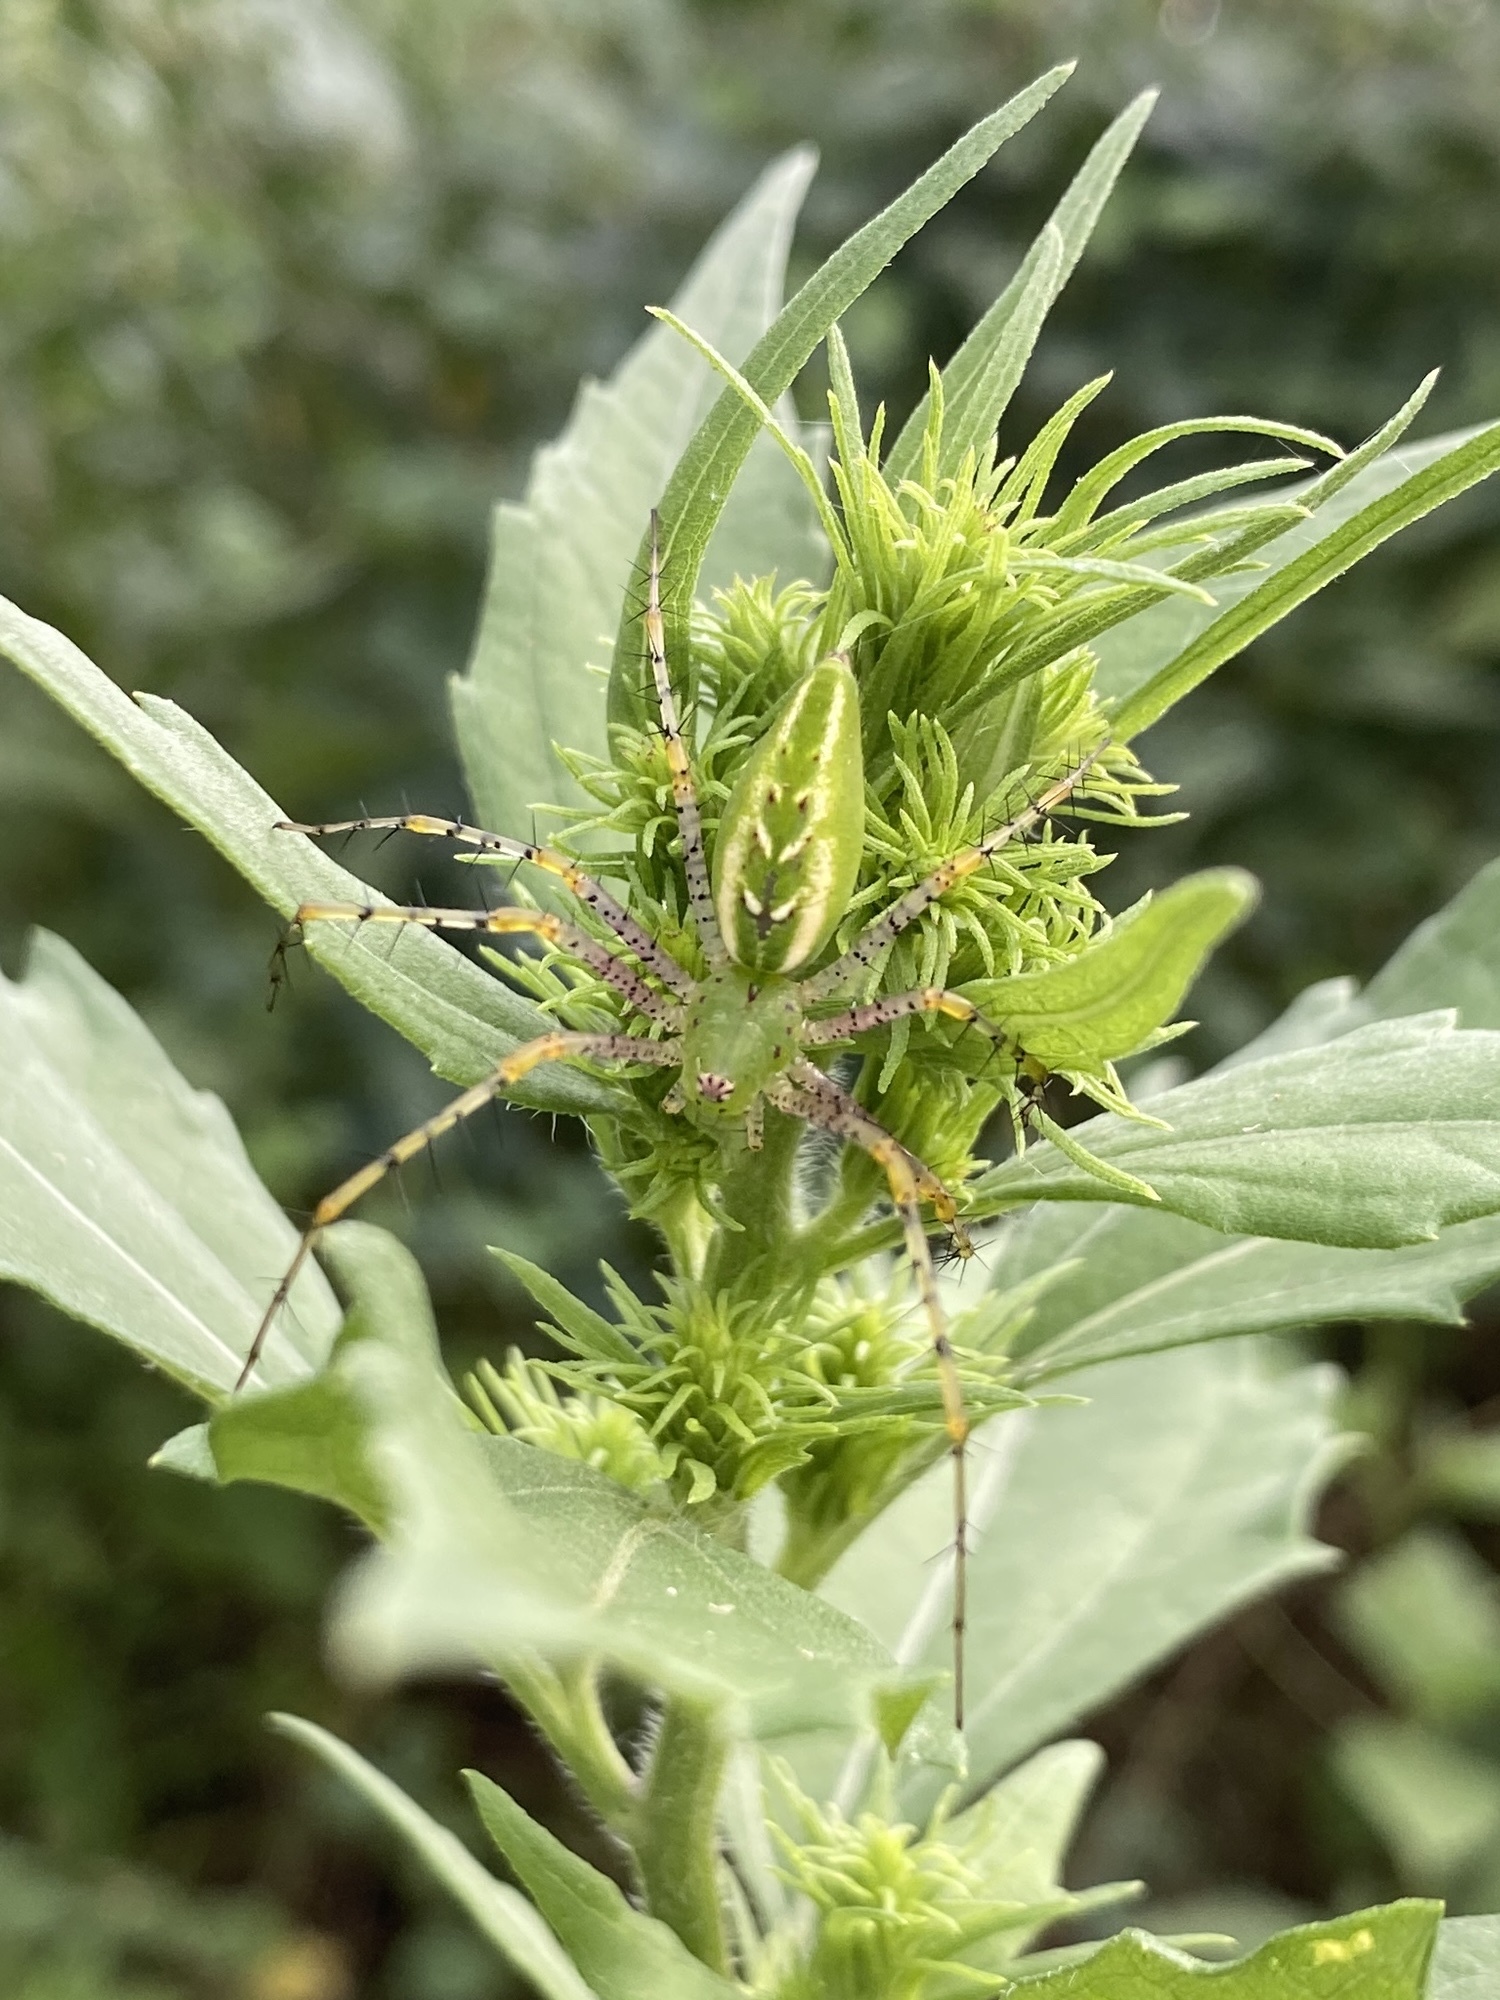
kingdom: Animalia
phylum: Arthropoda
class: Arachnida
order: Araneae
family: Oxyopidae
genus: Peucetia
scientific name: Peucetia viridans
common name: Lynx spiders
